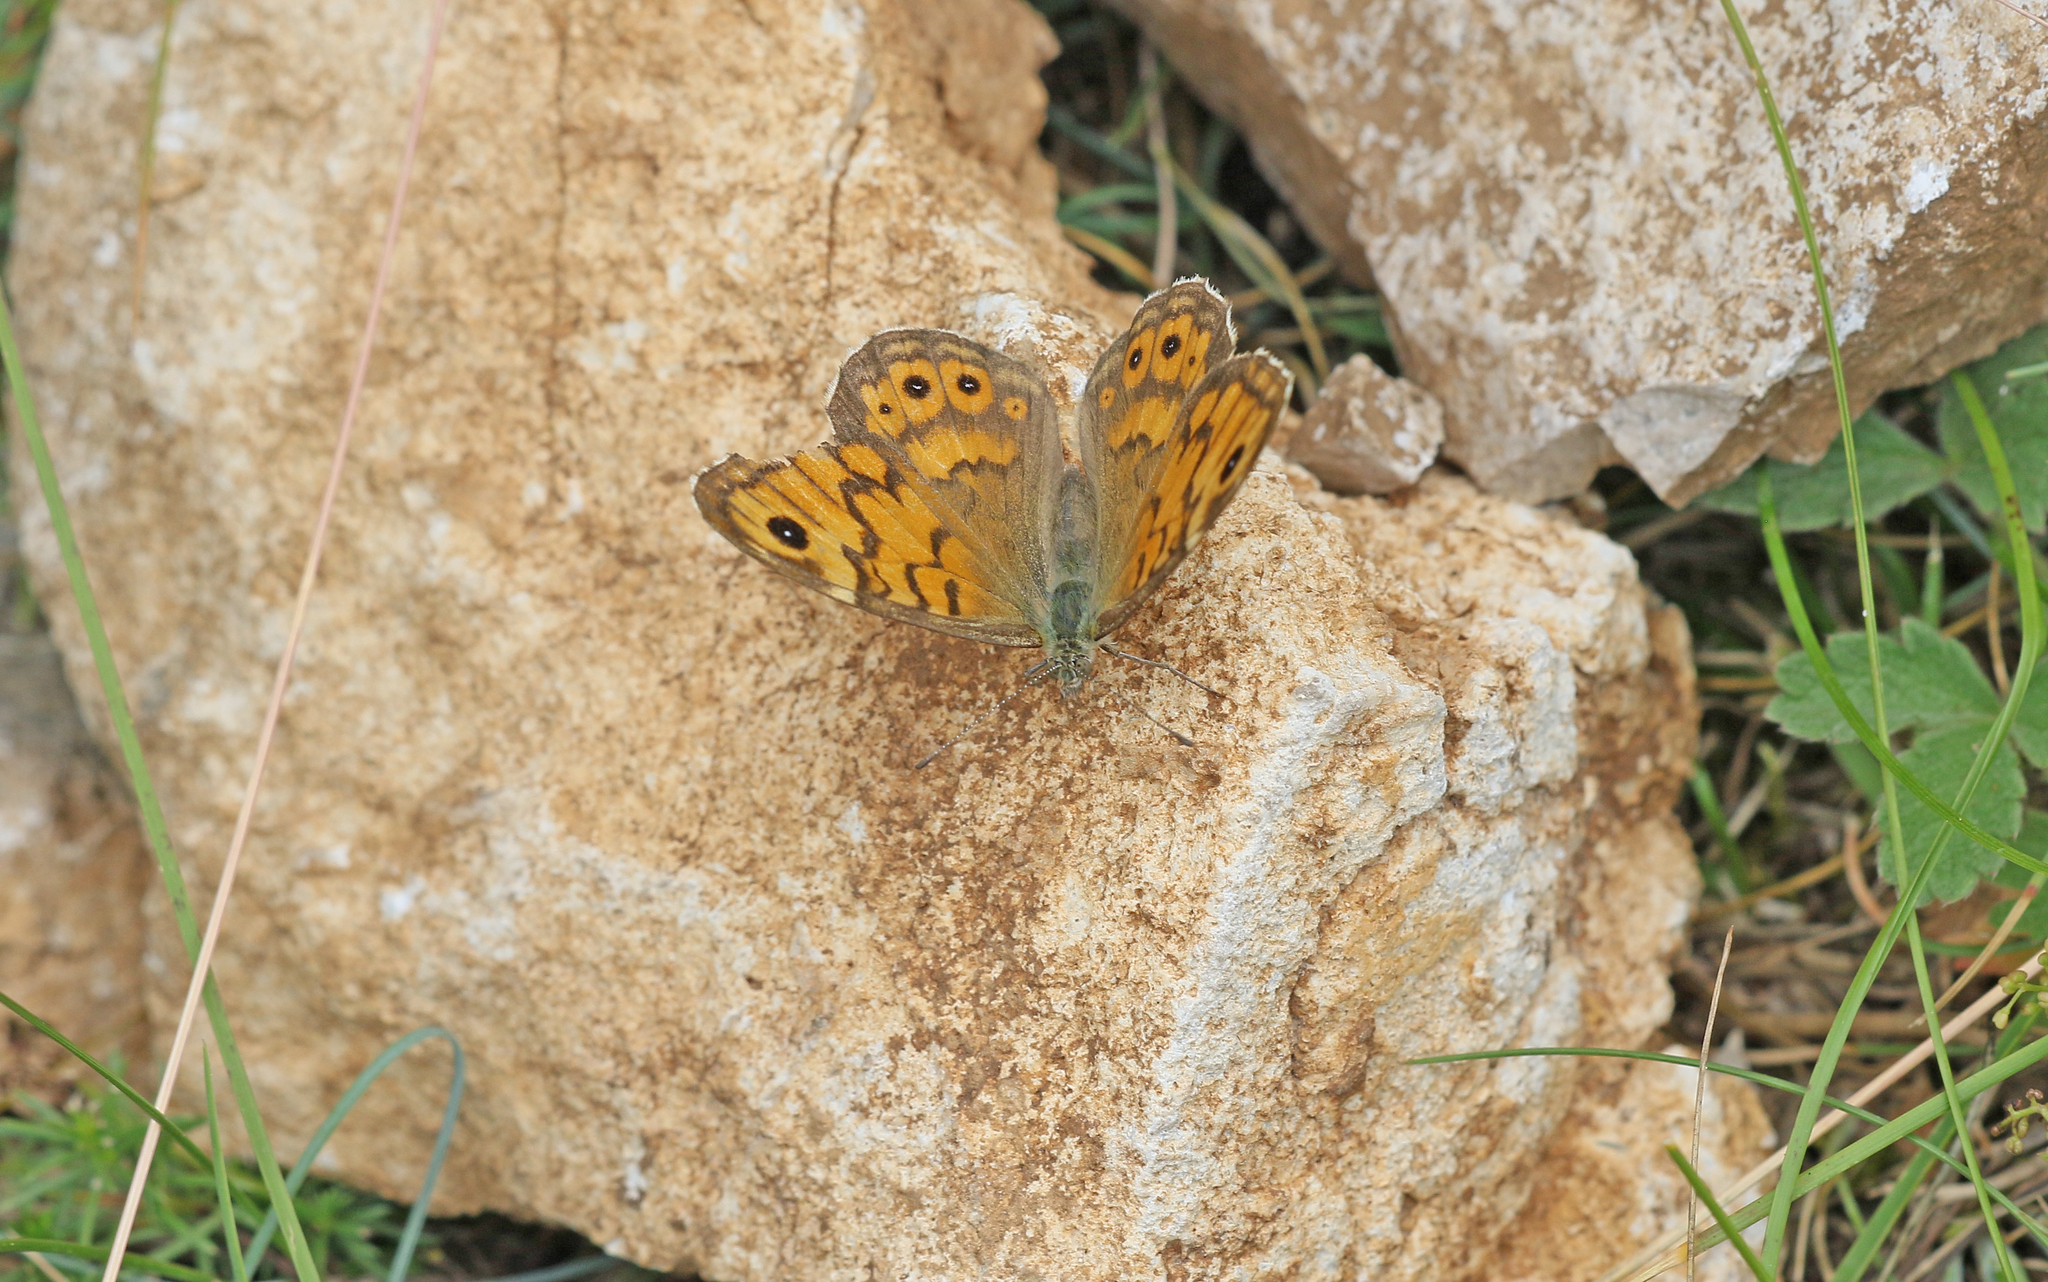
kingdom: Animalia
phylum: Arthropoda
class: Insecta
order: Lepidoptera
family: Nymphalidae
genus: Pararge
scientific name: Pararge Lasiommata megera
